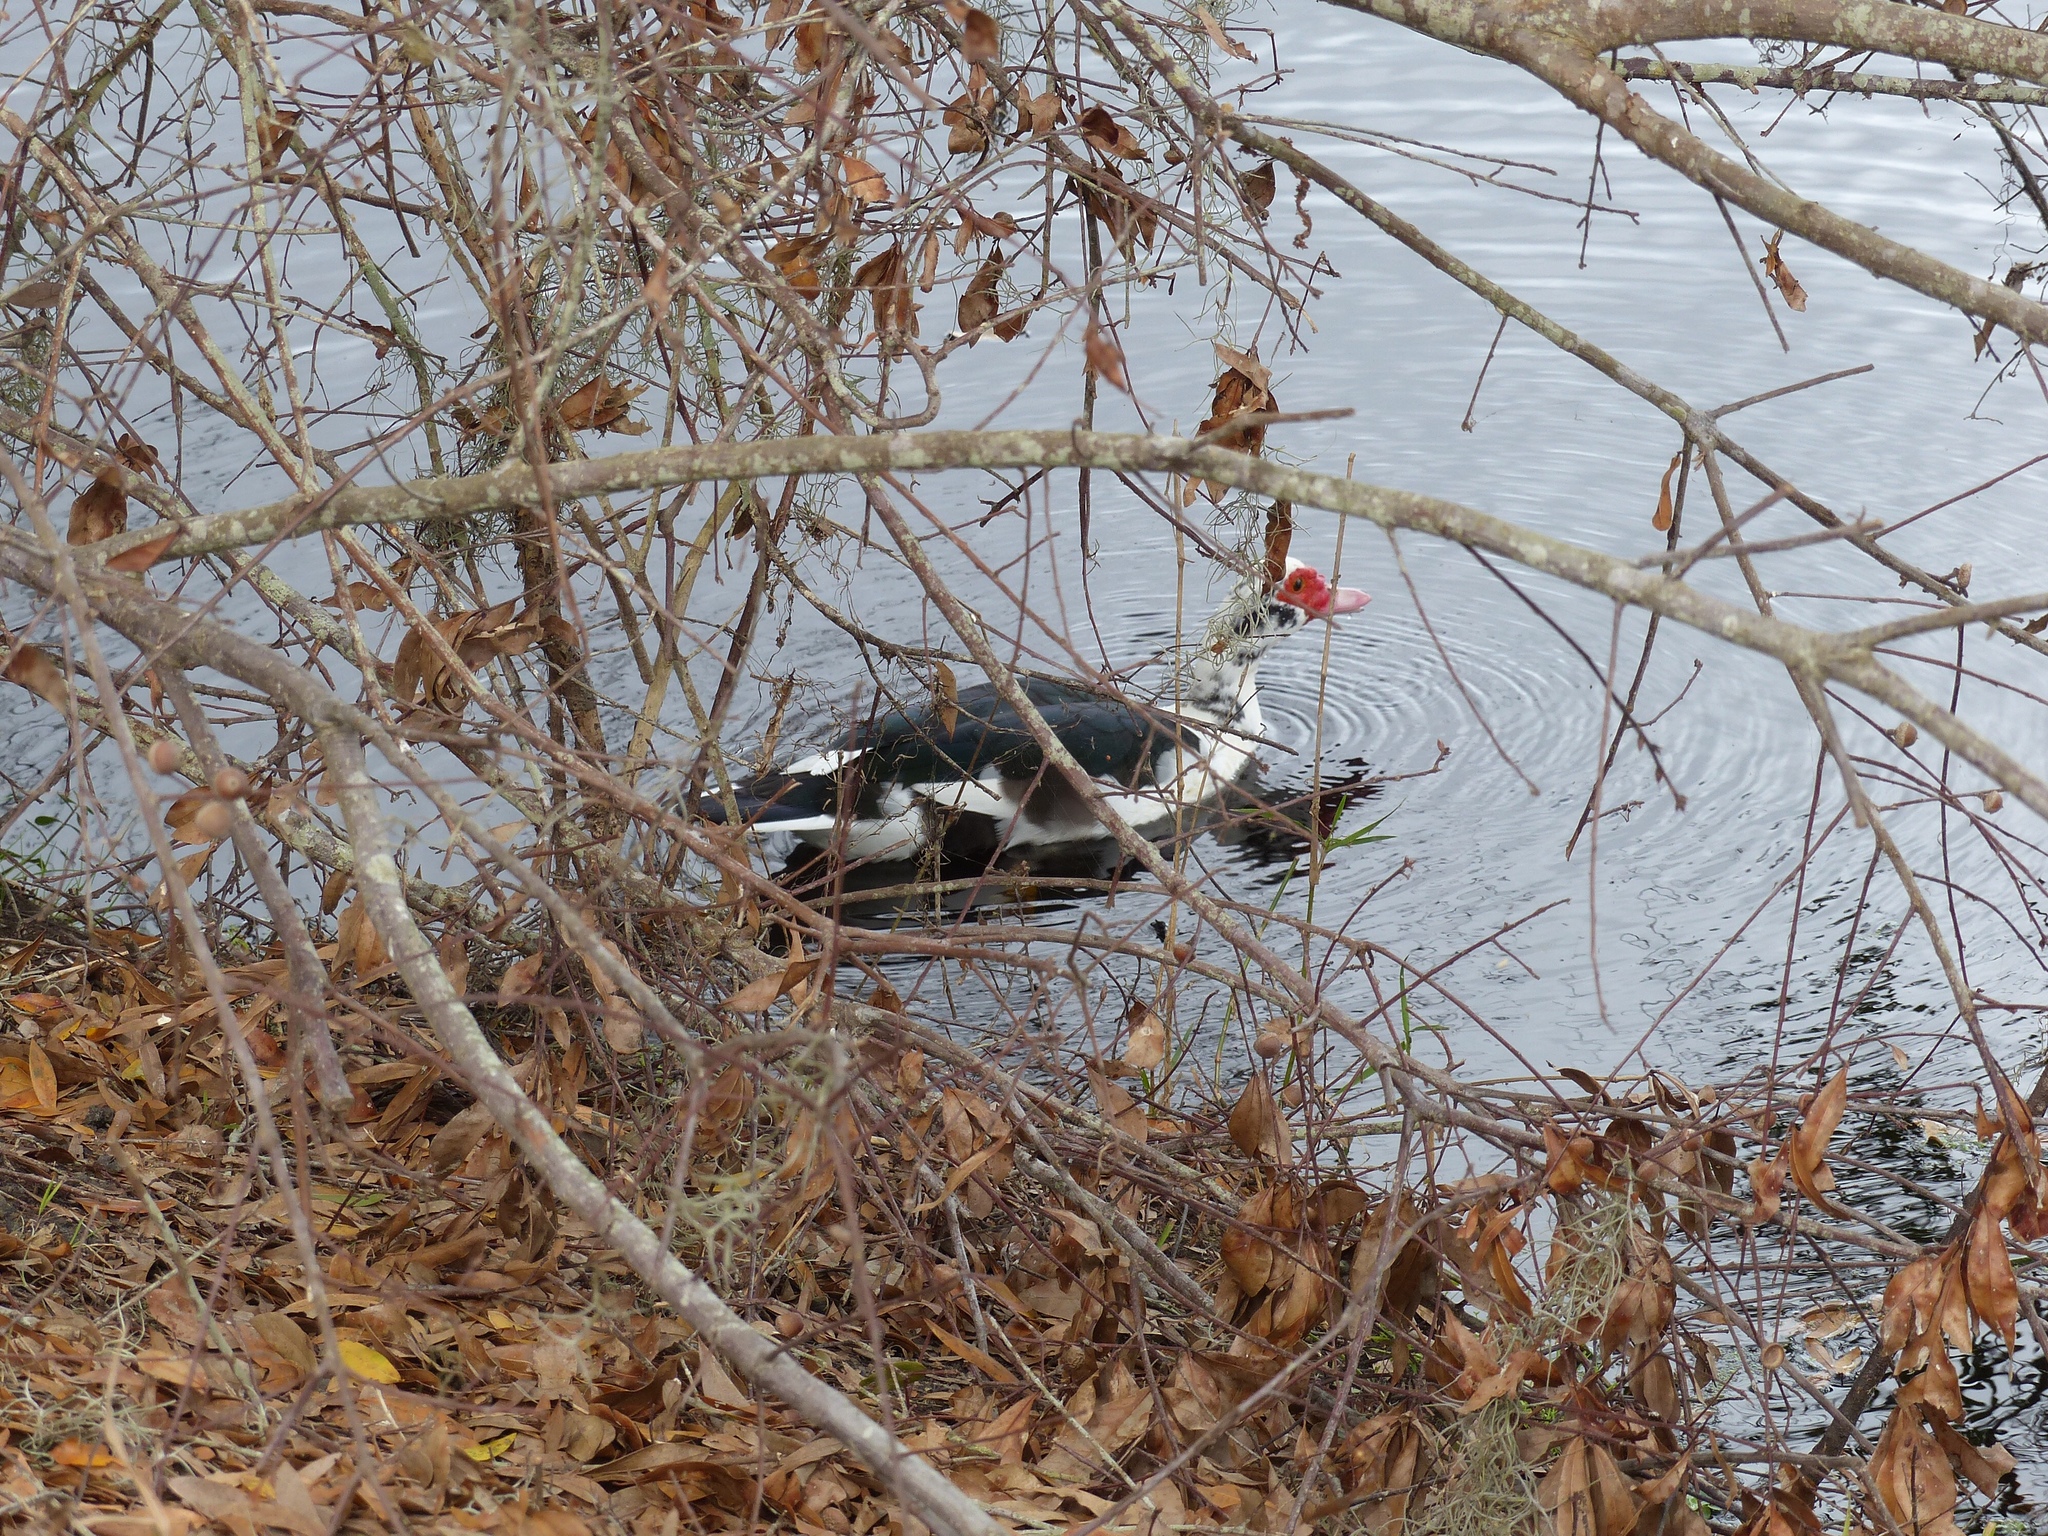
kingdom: Animalia
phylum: Chordata
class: Aves
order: Anseriformes
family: Anatidae
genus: Cairina
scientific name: Cairina moschata
